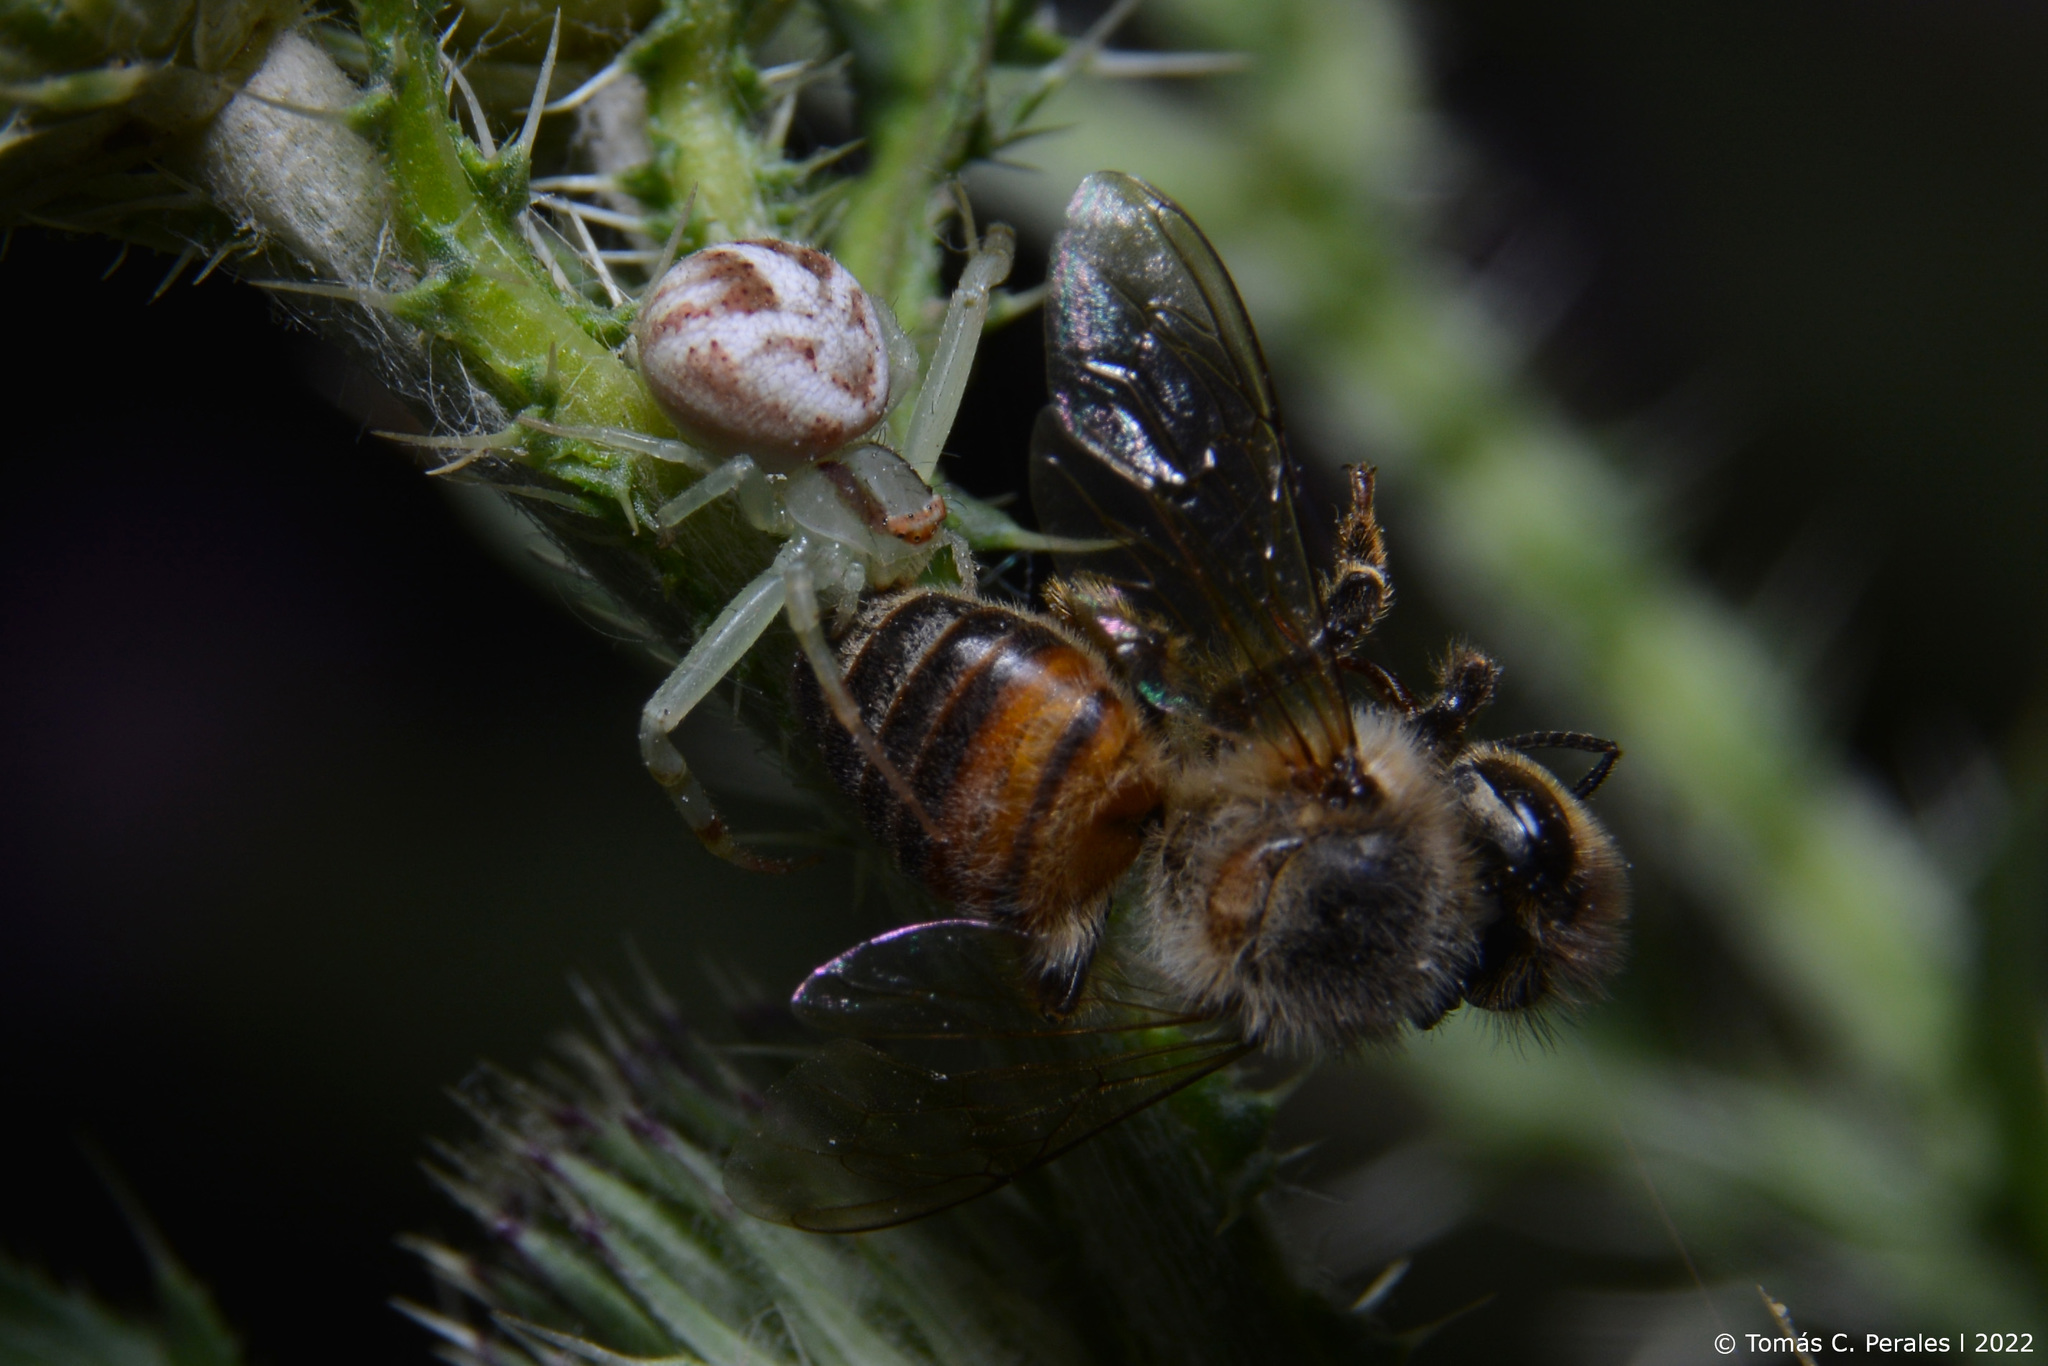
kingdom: Animalia
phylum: Arthropoda
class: Arachnida
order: Araneae
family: Thomisidae
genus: Misumenops
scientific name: Misumenops
